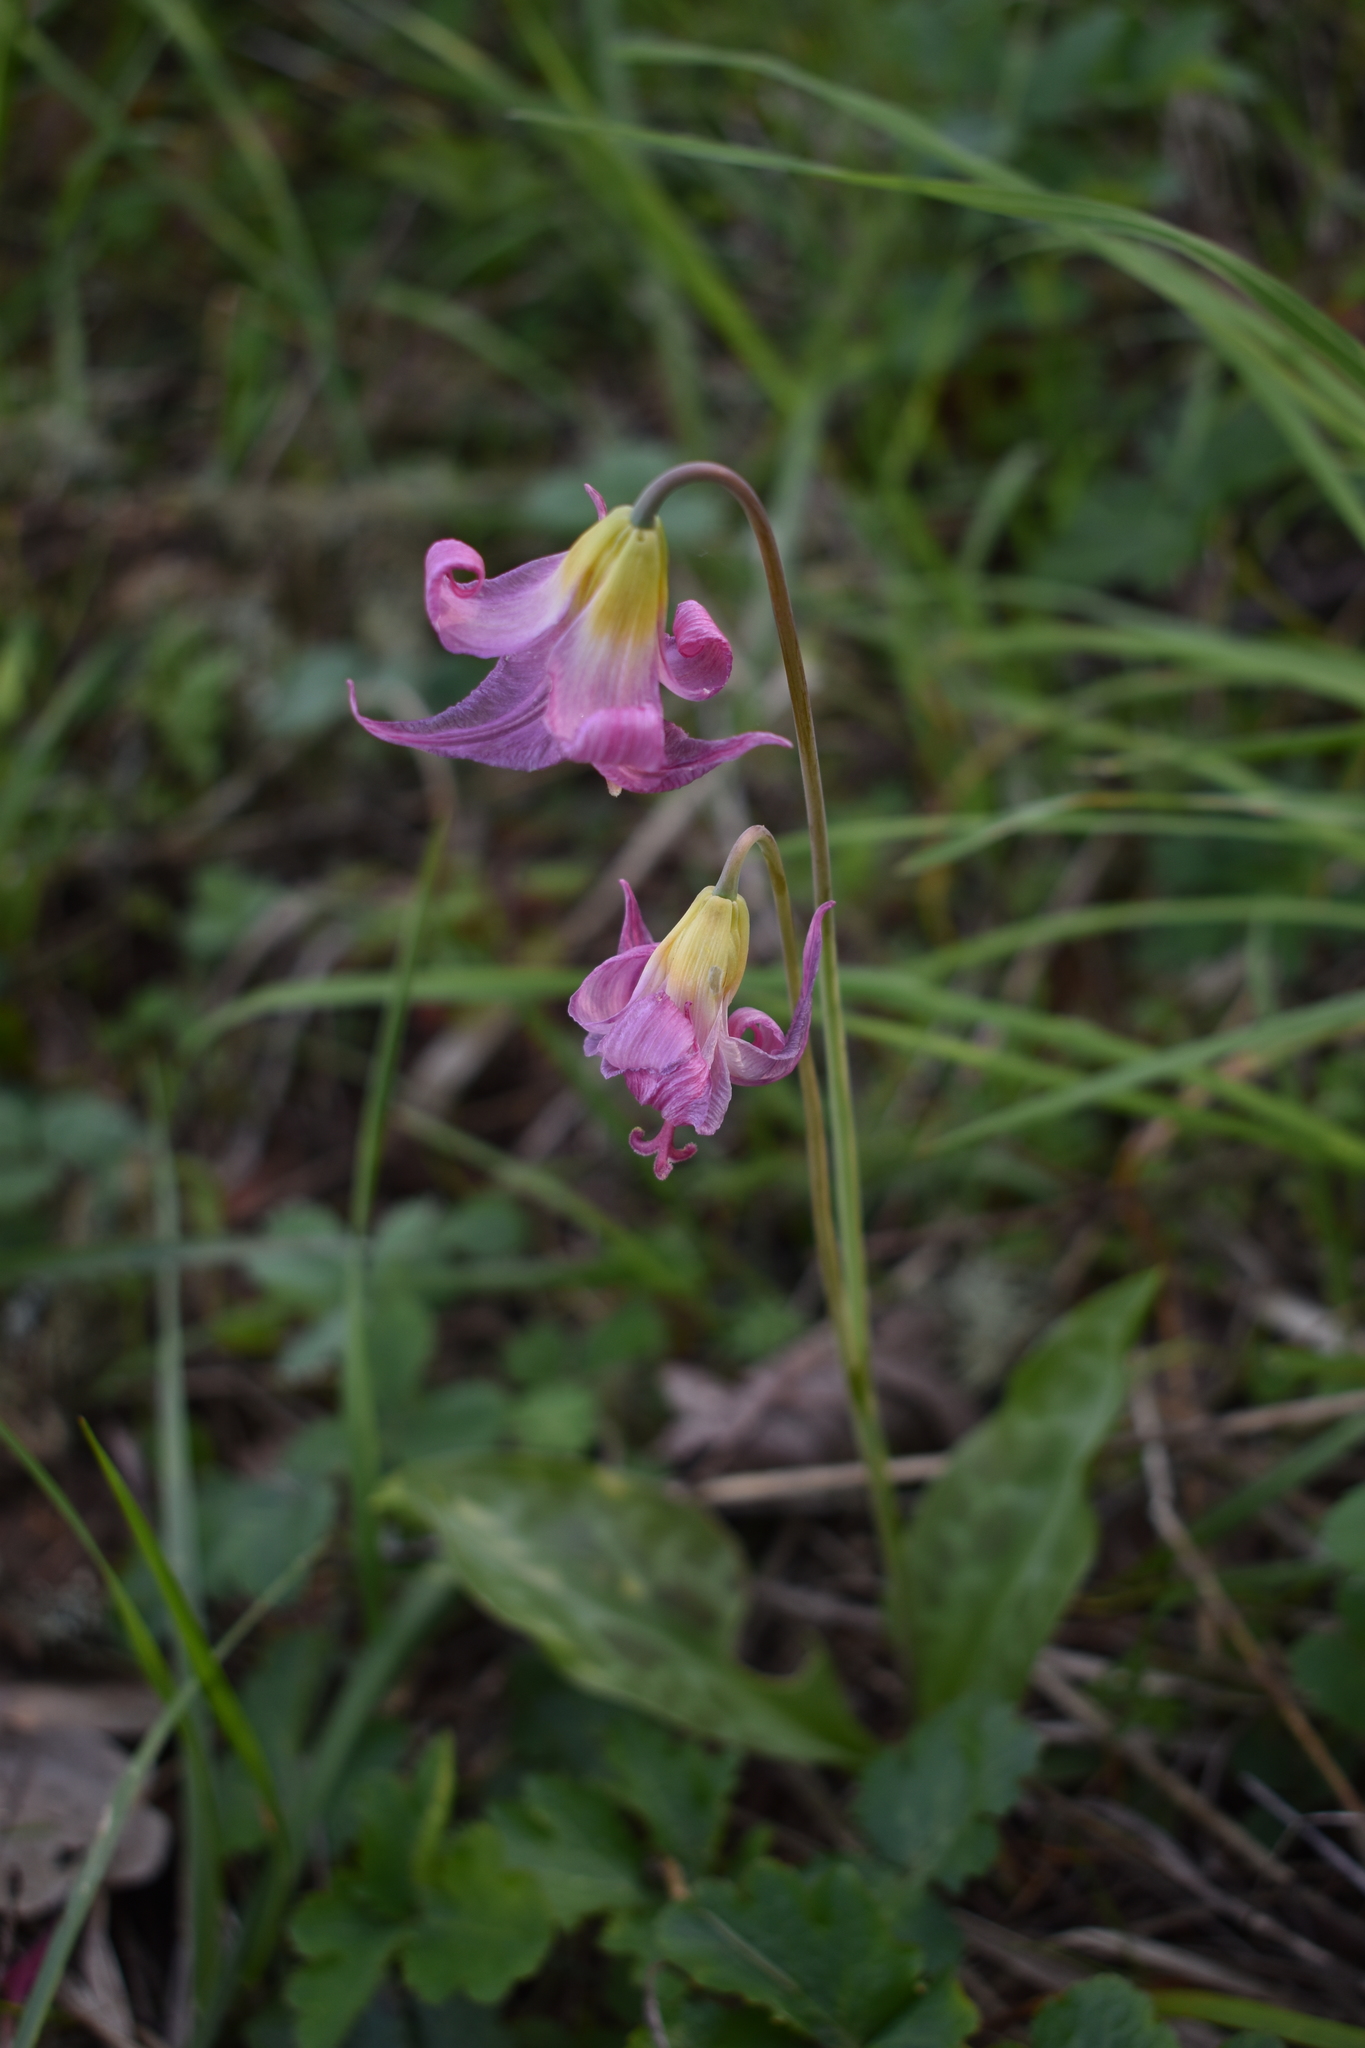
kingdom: Plantae
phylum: Tracheophyta
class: Liliopsida
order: Liliales
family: Liliaceae
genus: Erythronium
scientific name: Erythronium oregonum
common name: Giant adder's-tongue
